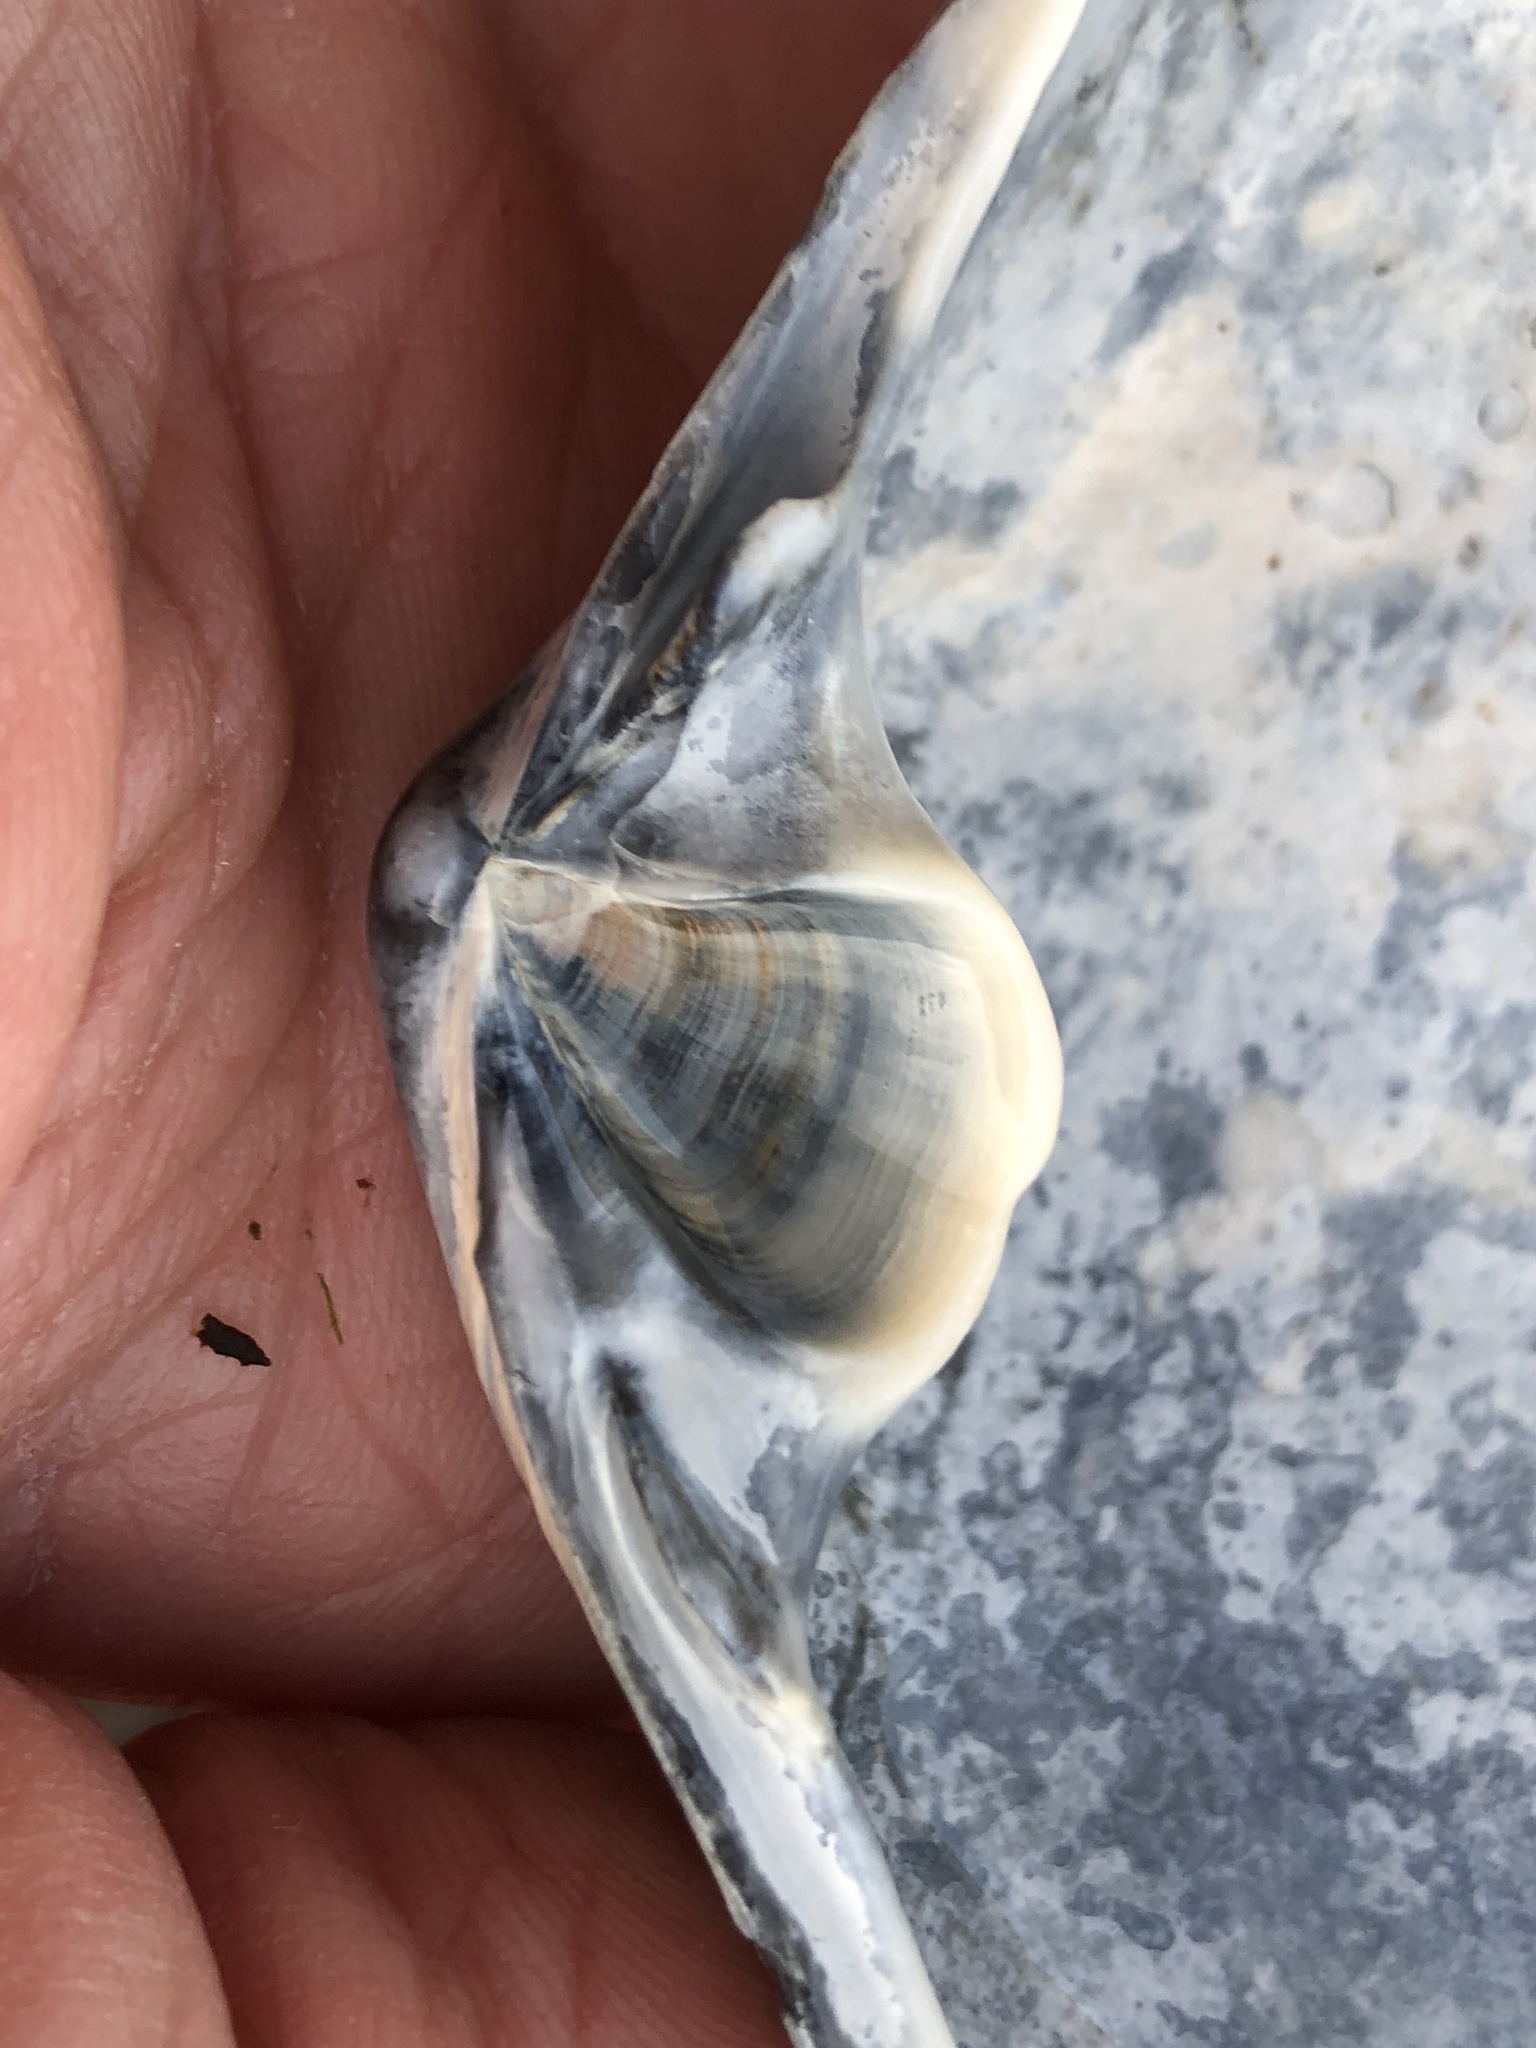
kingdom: Animalia
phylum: Mollusca
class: Bivalvia
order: Venerida
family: Mactridae
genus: Mactromeris
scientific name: Mactromeris catilliformis
